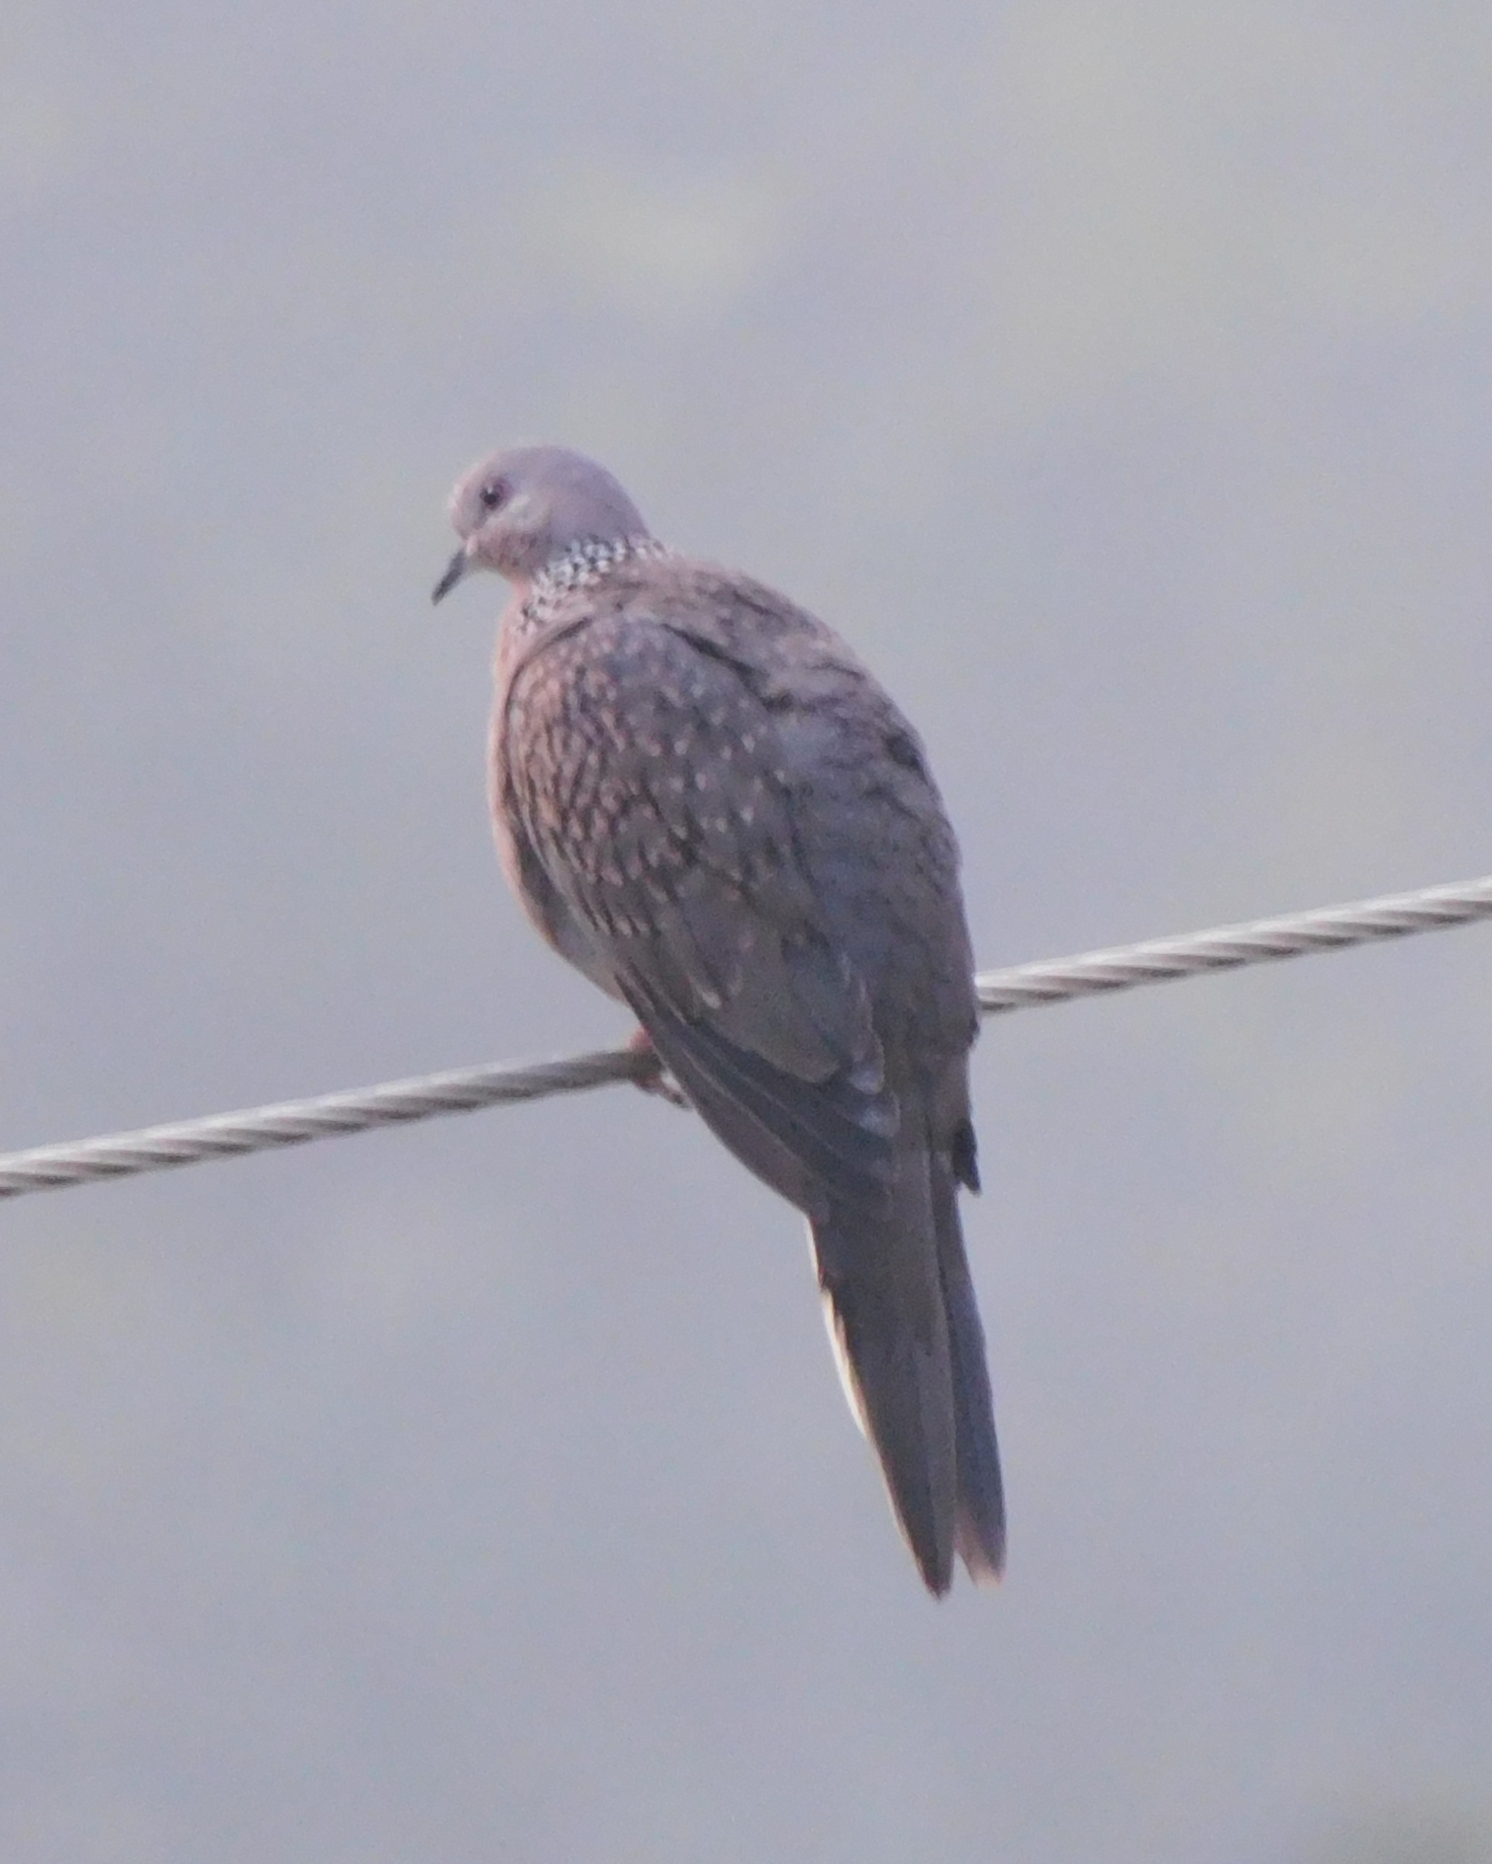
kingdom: Animalia
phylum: Chordata
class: Aves
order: Columbiformes
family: Columbidae
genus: Spilopelia
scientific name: Spilopelia chinensis
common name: Spotted dove
